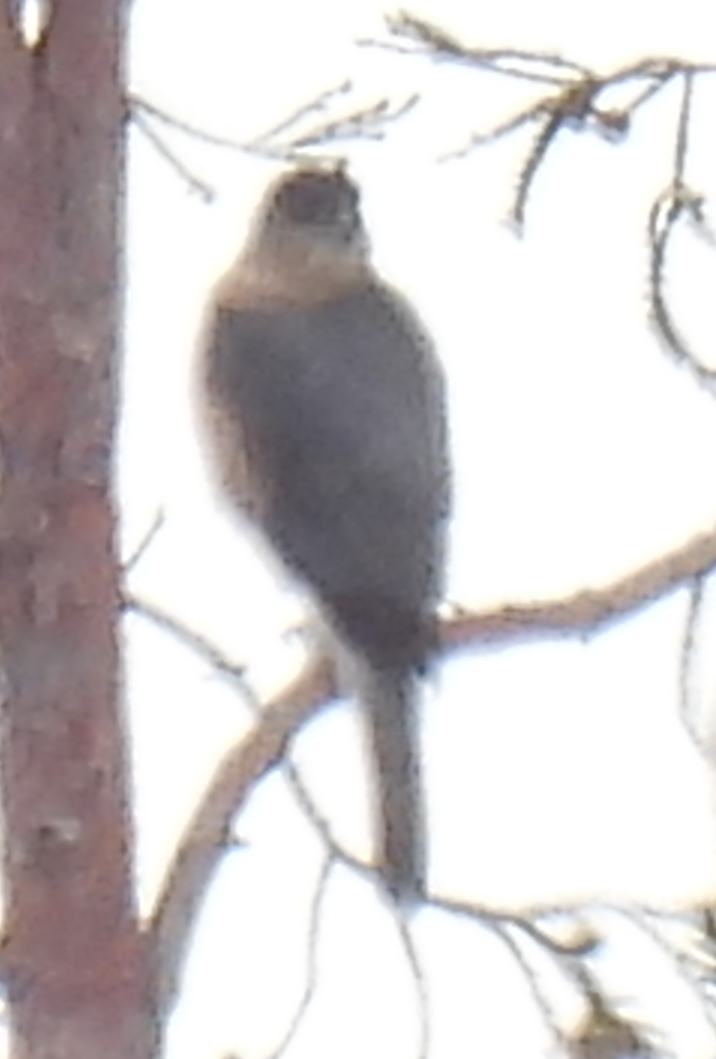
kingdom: Animalia
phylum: Chordata
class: Aves
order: Accipitriformes
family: Accipitridae
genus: Accipiter
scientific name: Accipiter cooperii
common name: Cooper's hawk
